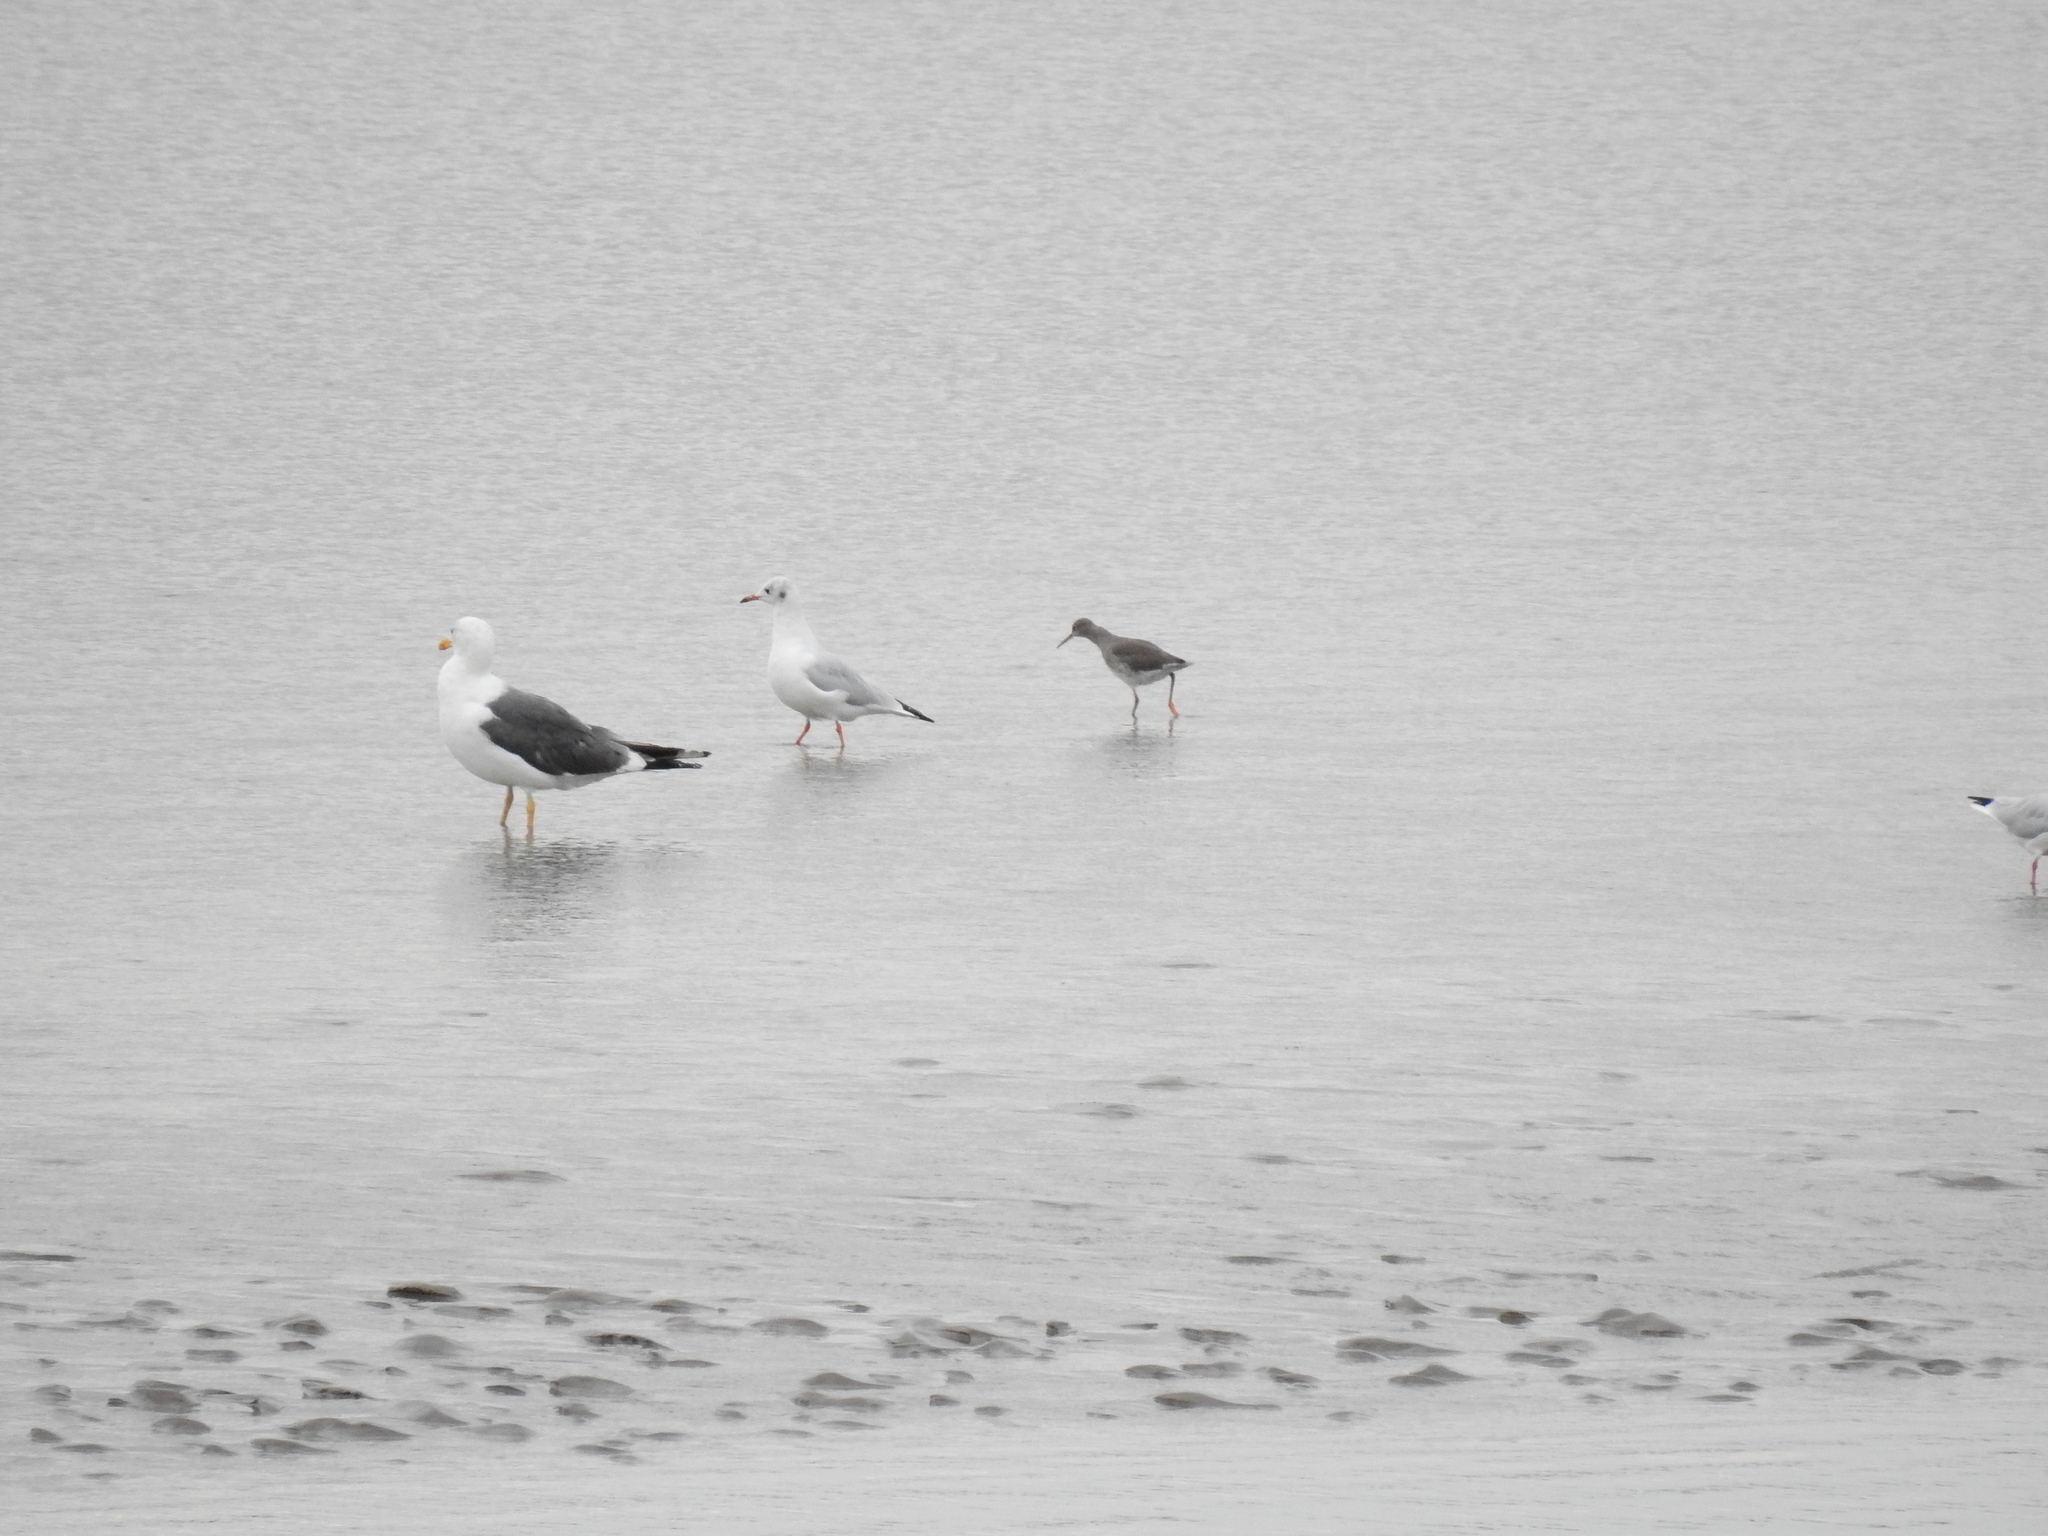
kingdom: Animalia
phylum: Chordata
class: Aves
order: Charadriiformes
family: Scolopacidae
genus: Tringa
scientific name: Tringa totanus
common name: Common redshank
